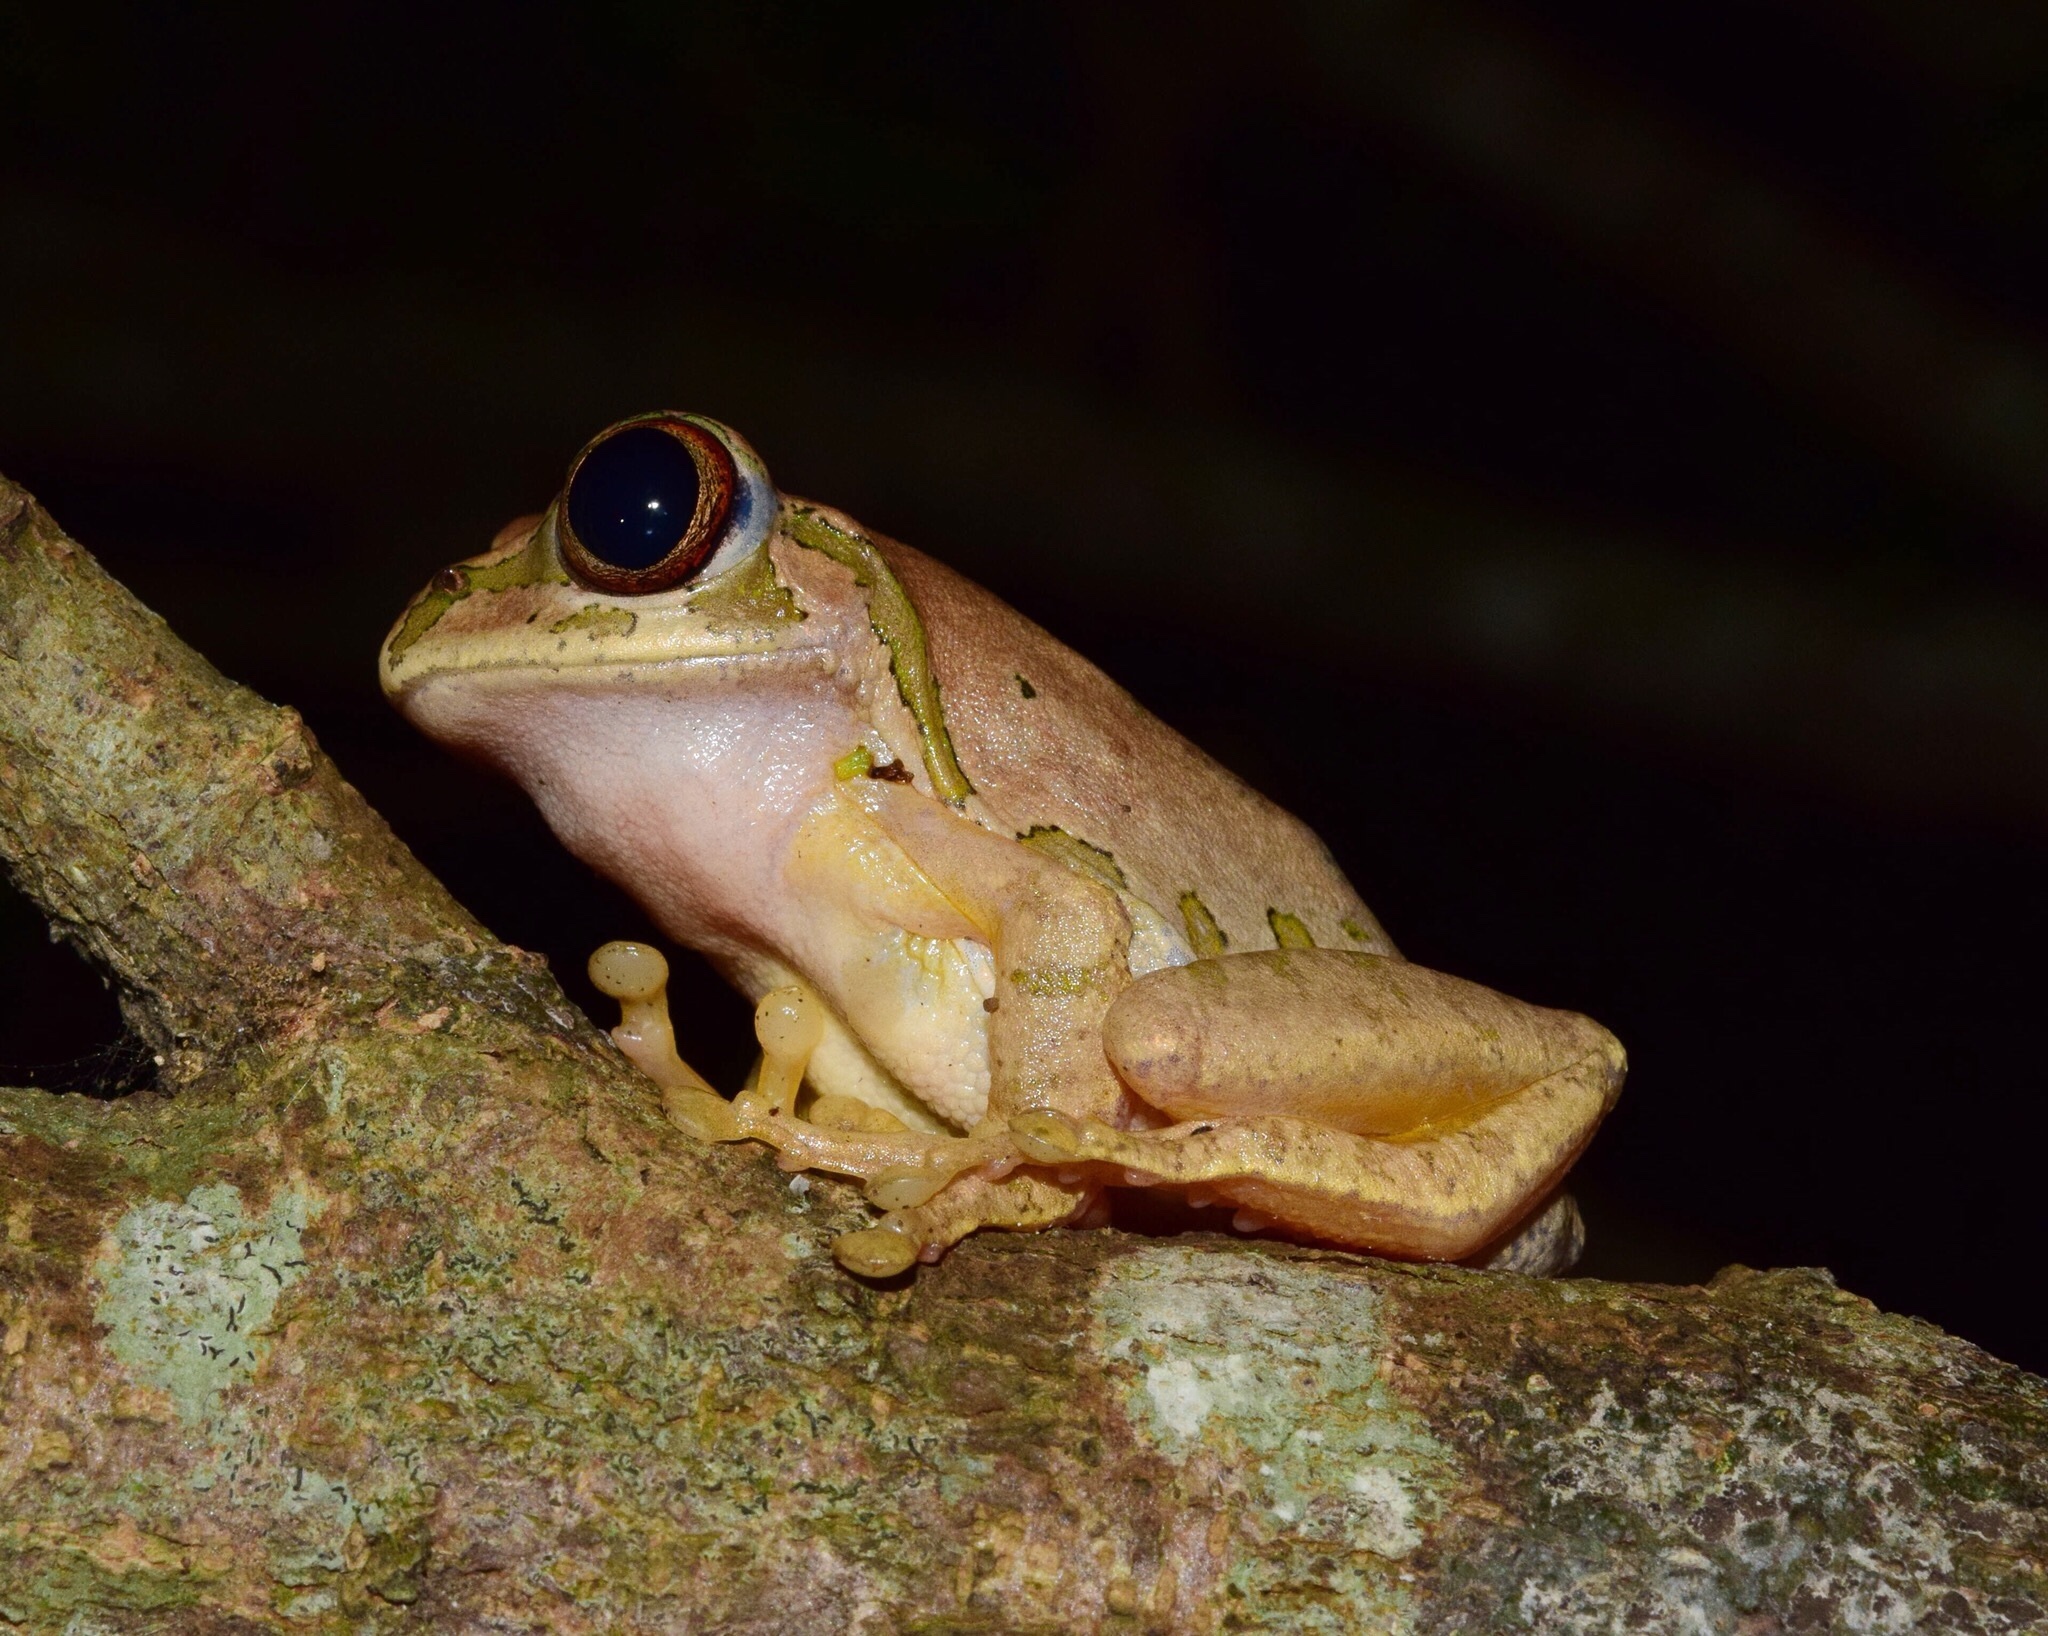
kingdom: Animalia
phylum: Chordata
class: Amphibia
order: Anura
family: Arthroleptidae
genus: Leptopelis
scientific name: Leptopelis natalensis
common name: Natal tree frog
